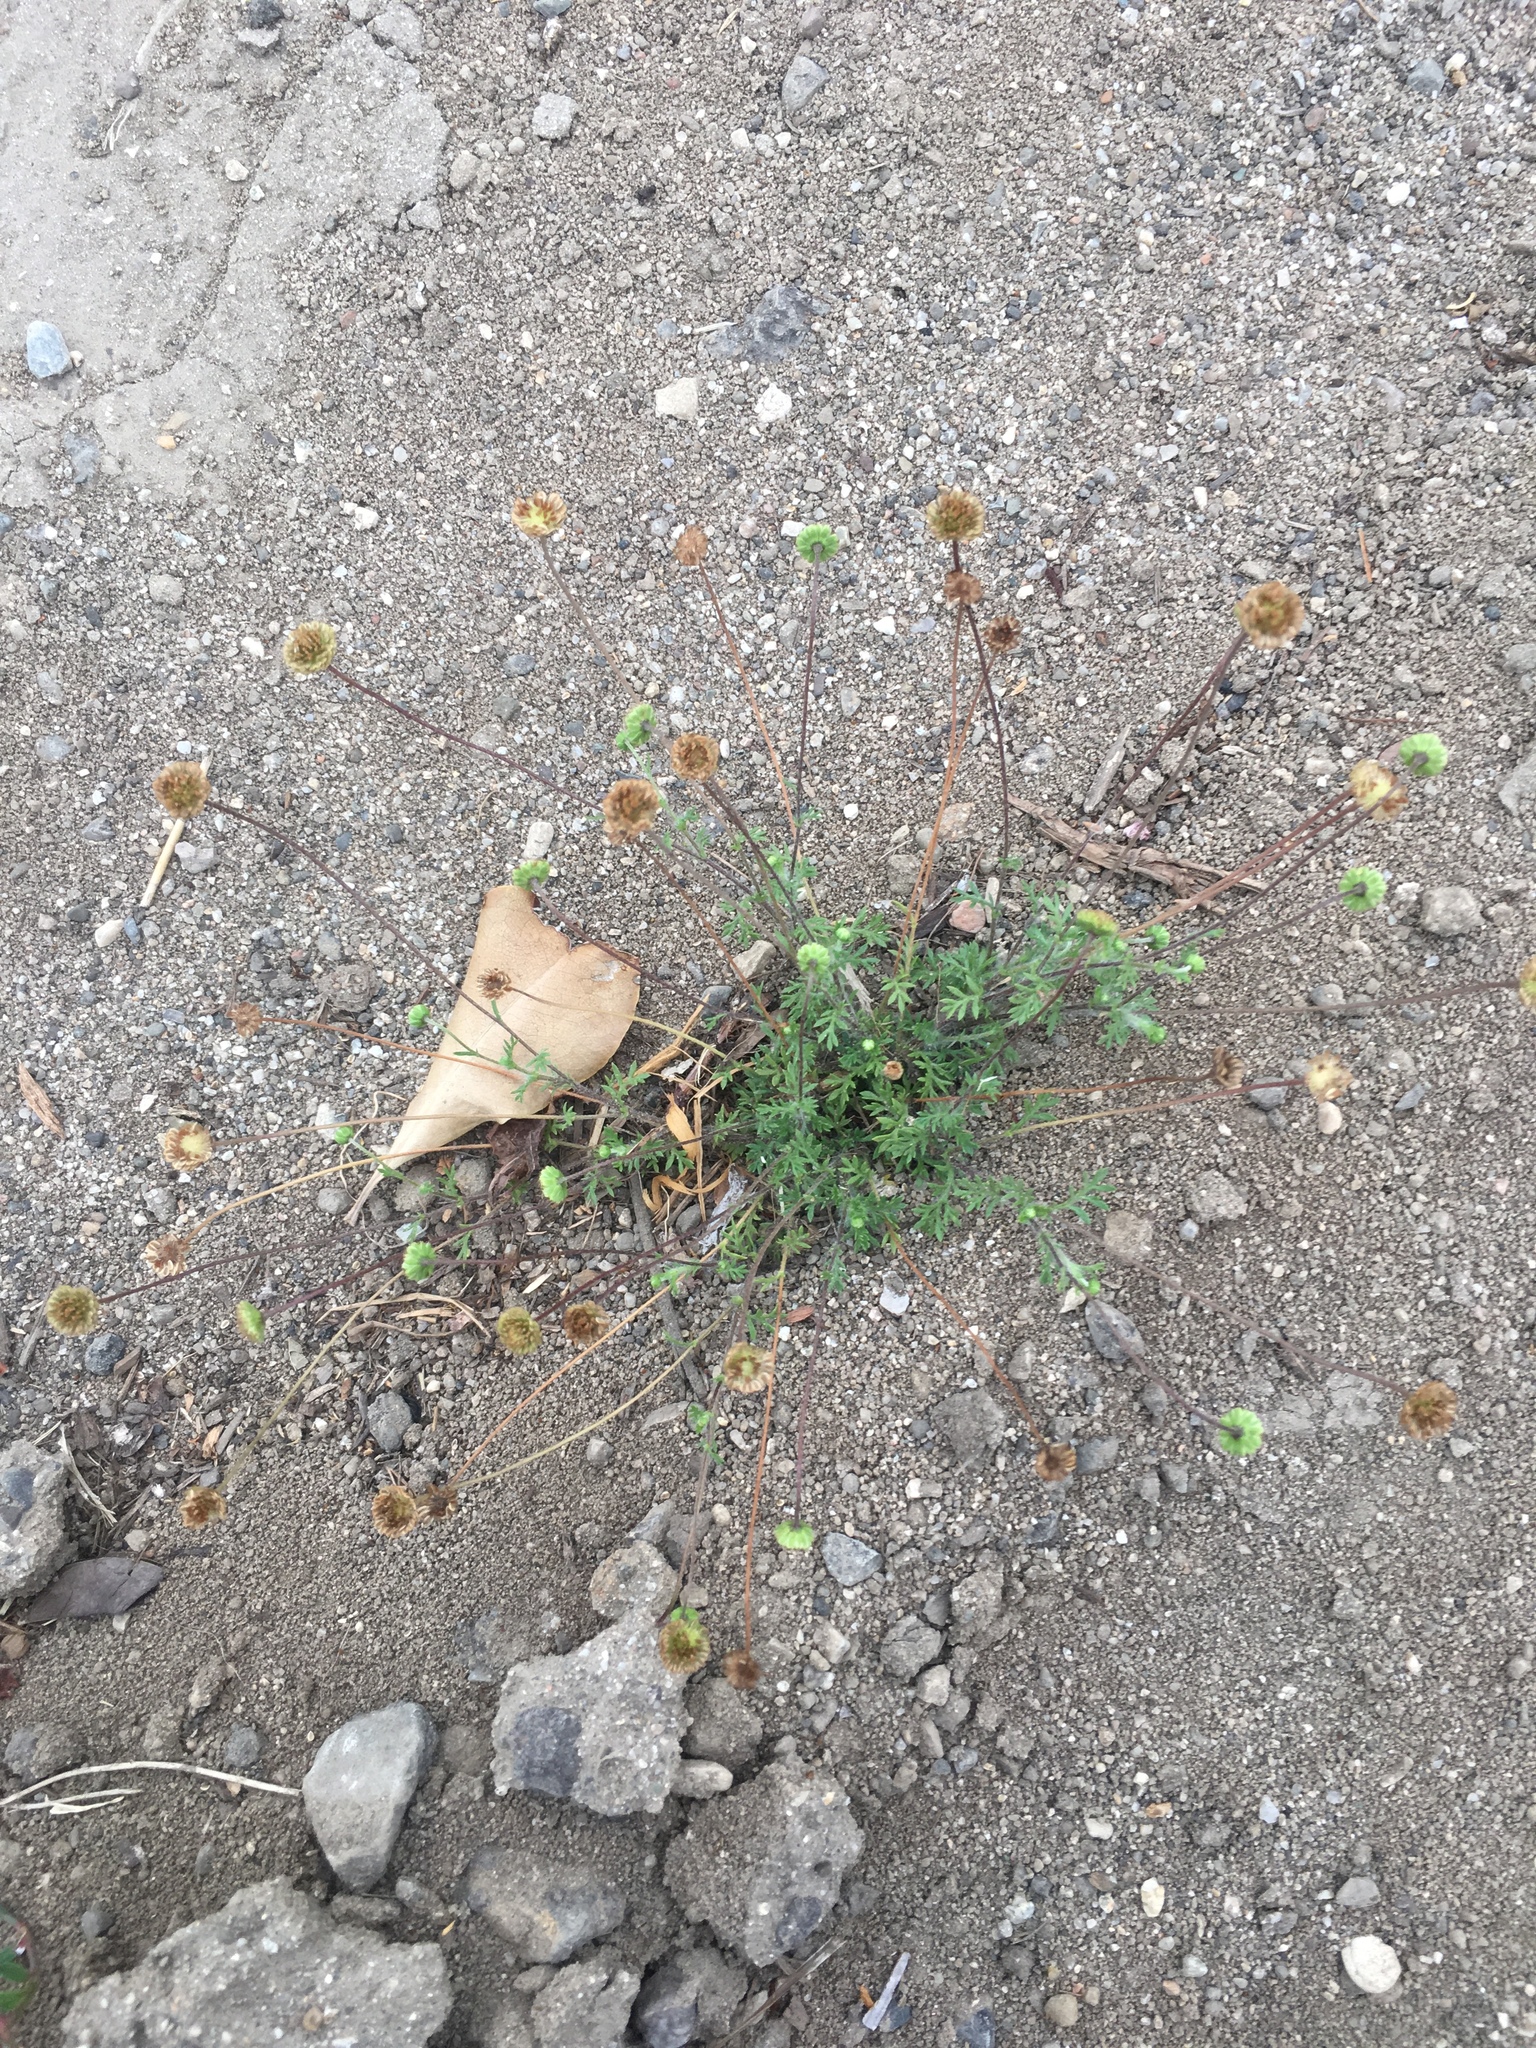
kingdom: Plantae
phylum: Tracheophyta
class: Magnoliopsida
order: Asterales
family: Asteraceae
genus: Cotula
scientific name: Cotula australis
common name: Australian waterbuttons
